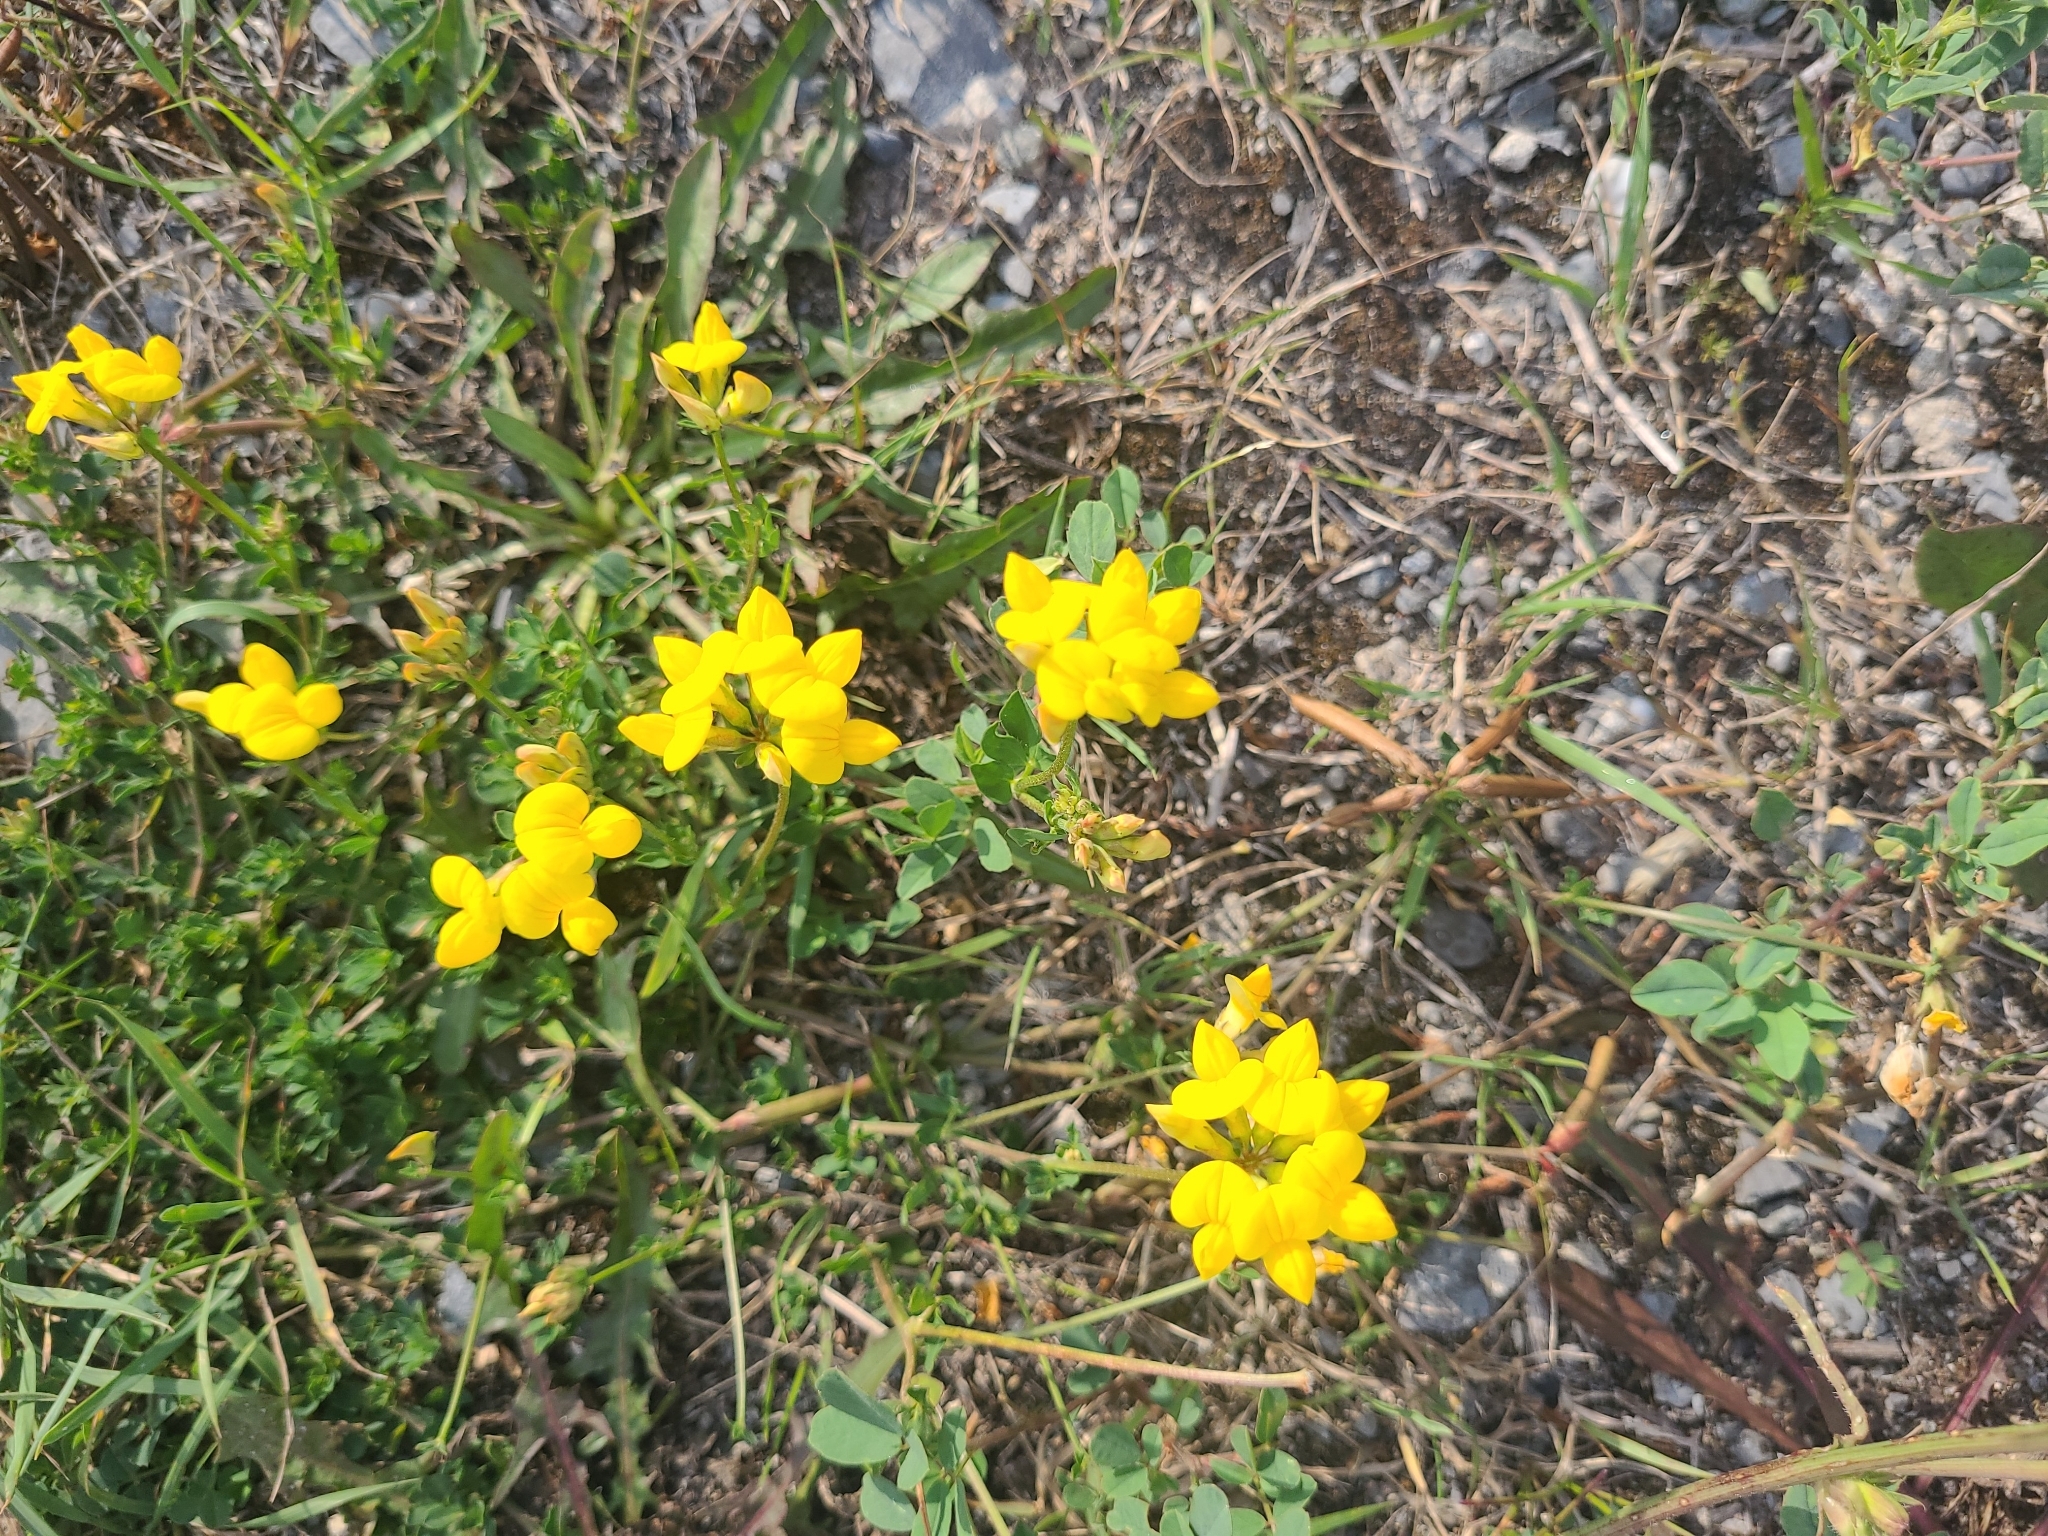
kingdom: Plantae
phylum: Tracheophyta
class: Magnoliopsida
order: Fabales
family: Fabaceae
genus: Lotus
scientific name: Lotus corniculatus
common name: Common bird's-foot-trefoil
